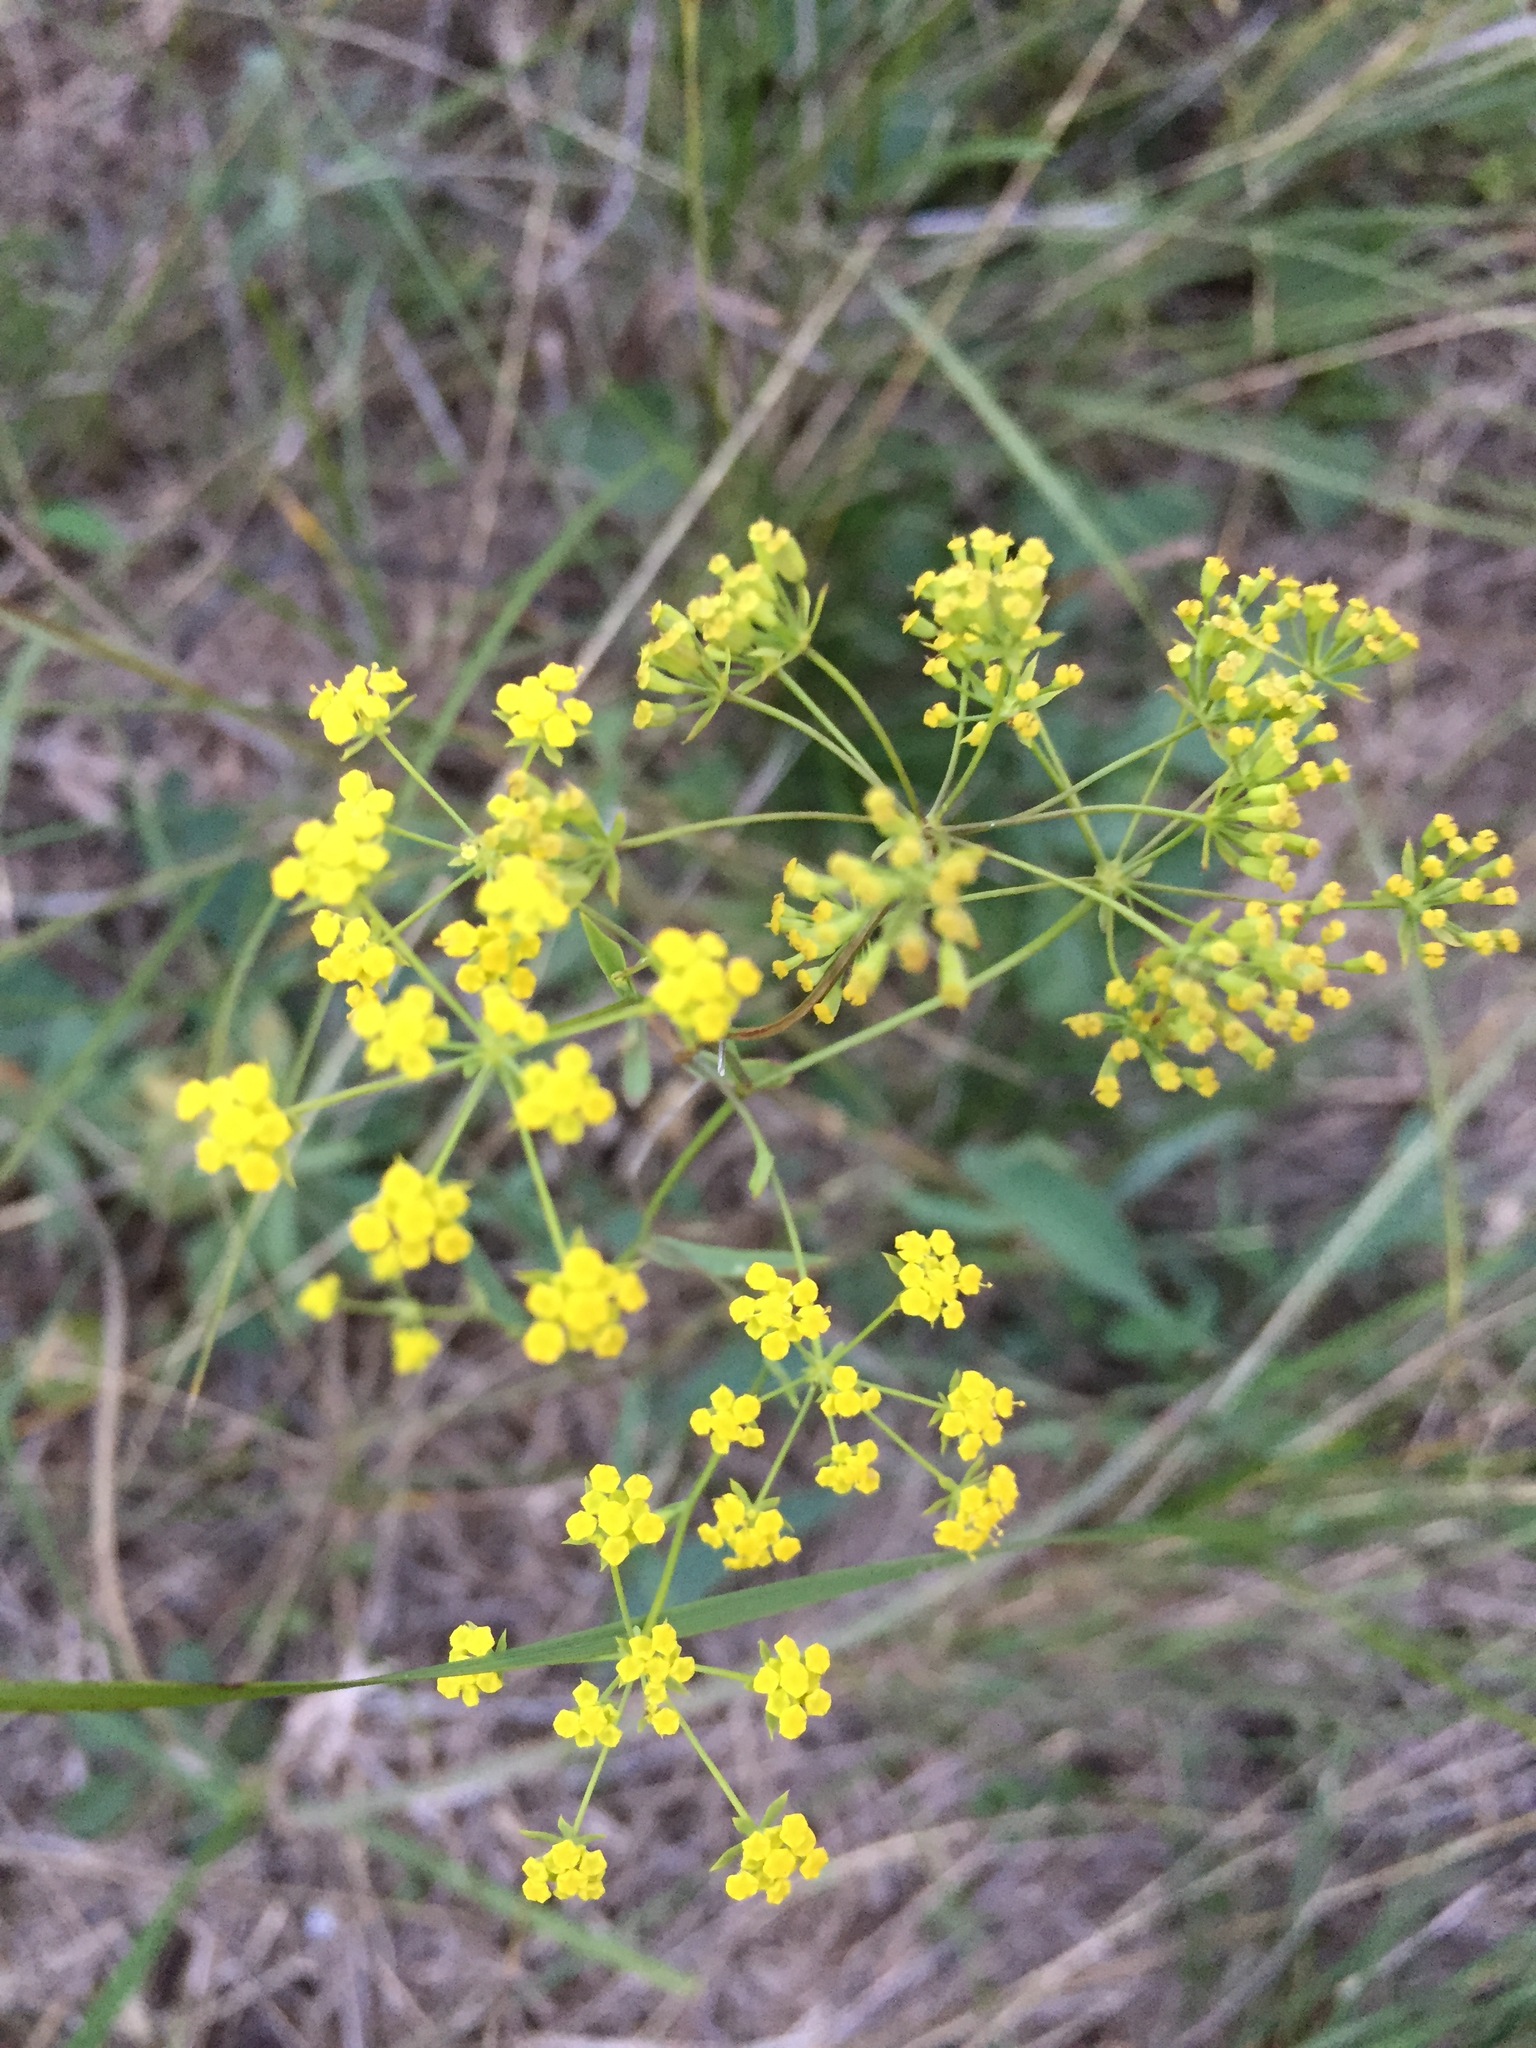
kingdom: Plantae
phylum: Tracheophyta
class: Magnoliopsida
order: Apiales
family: Apiaceae
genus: Bupleurum
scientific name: Bupleurum falcatum
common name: Sickle-leaved hare's-ear
